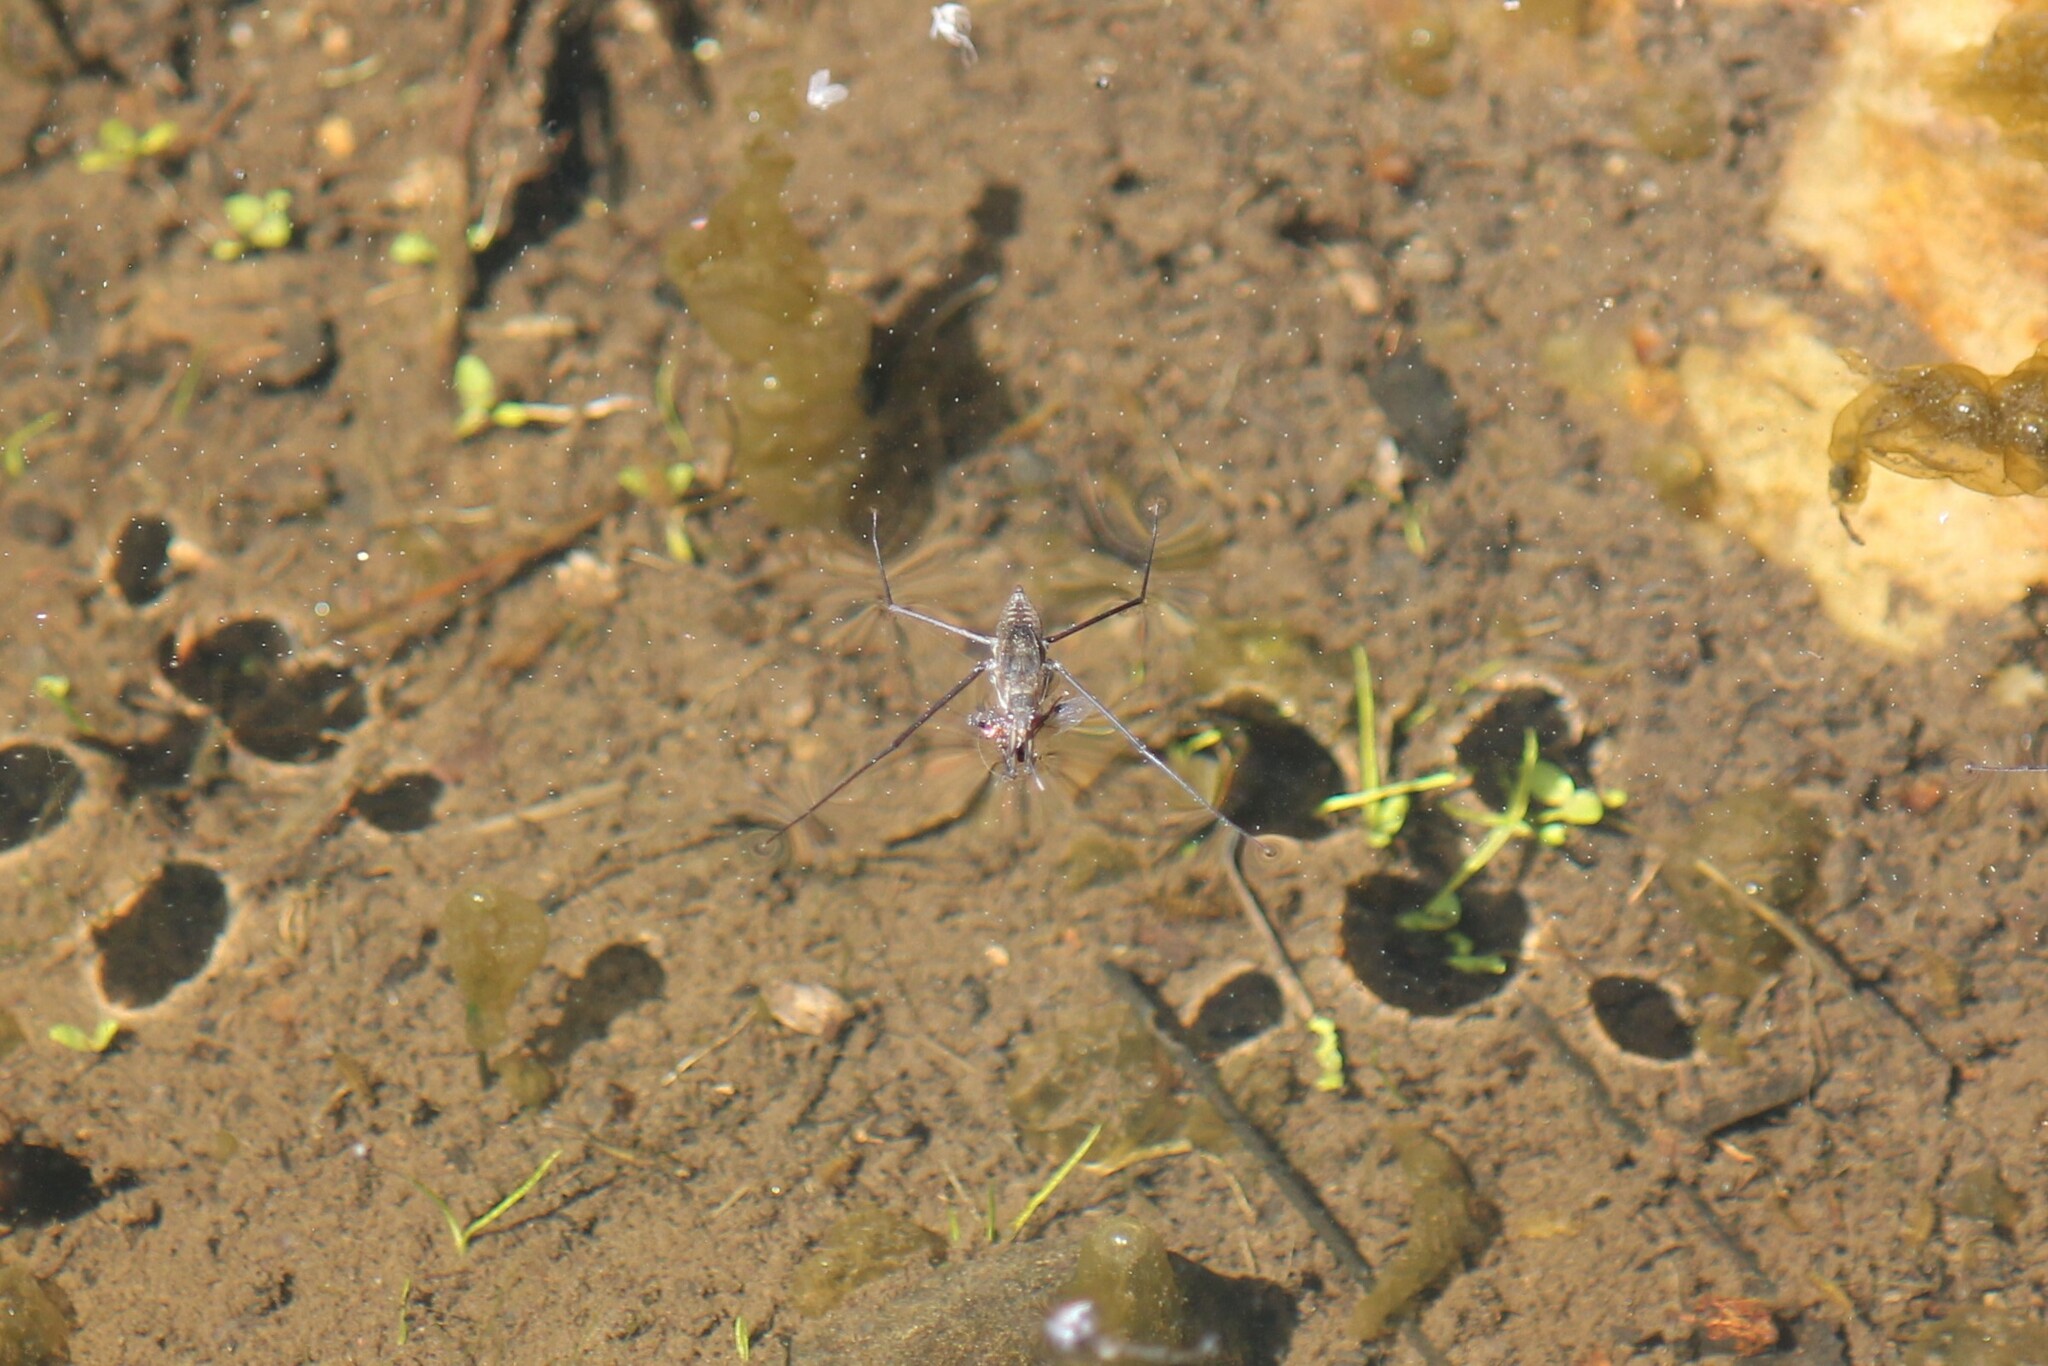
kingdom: Animalia
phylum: Arthropoda
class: Insecta
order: Hemiptera
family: Gerridae
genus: Aquarius
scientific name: Aquarius remigis
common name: Common water strider
